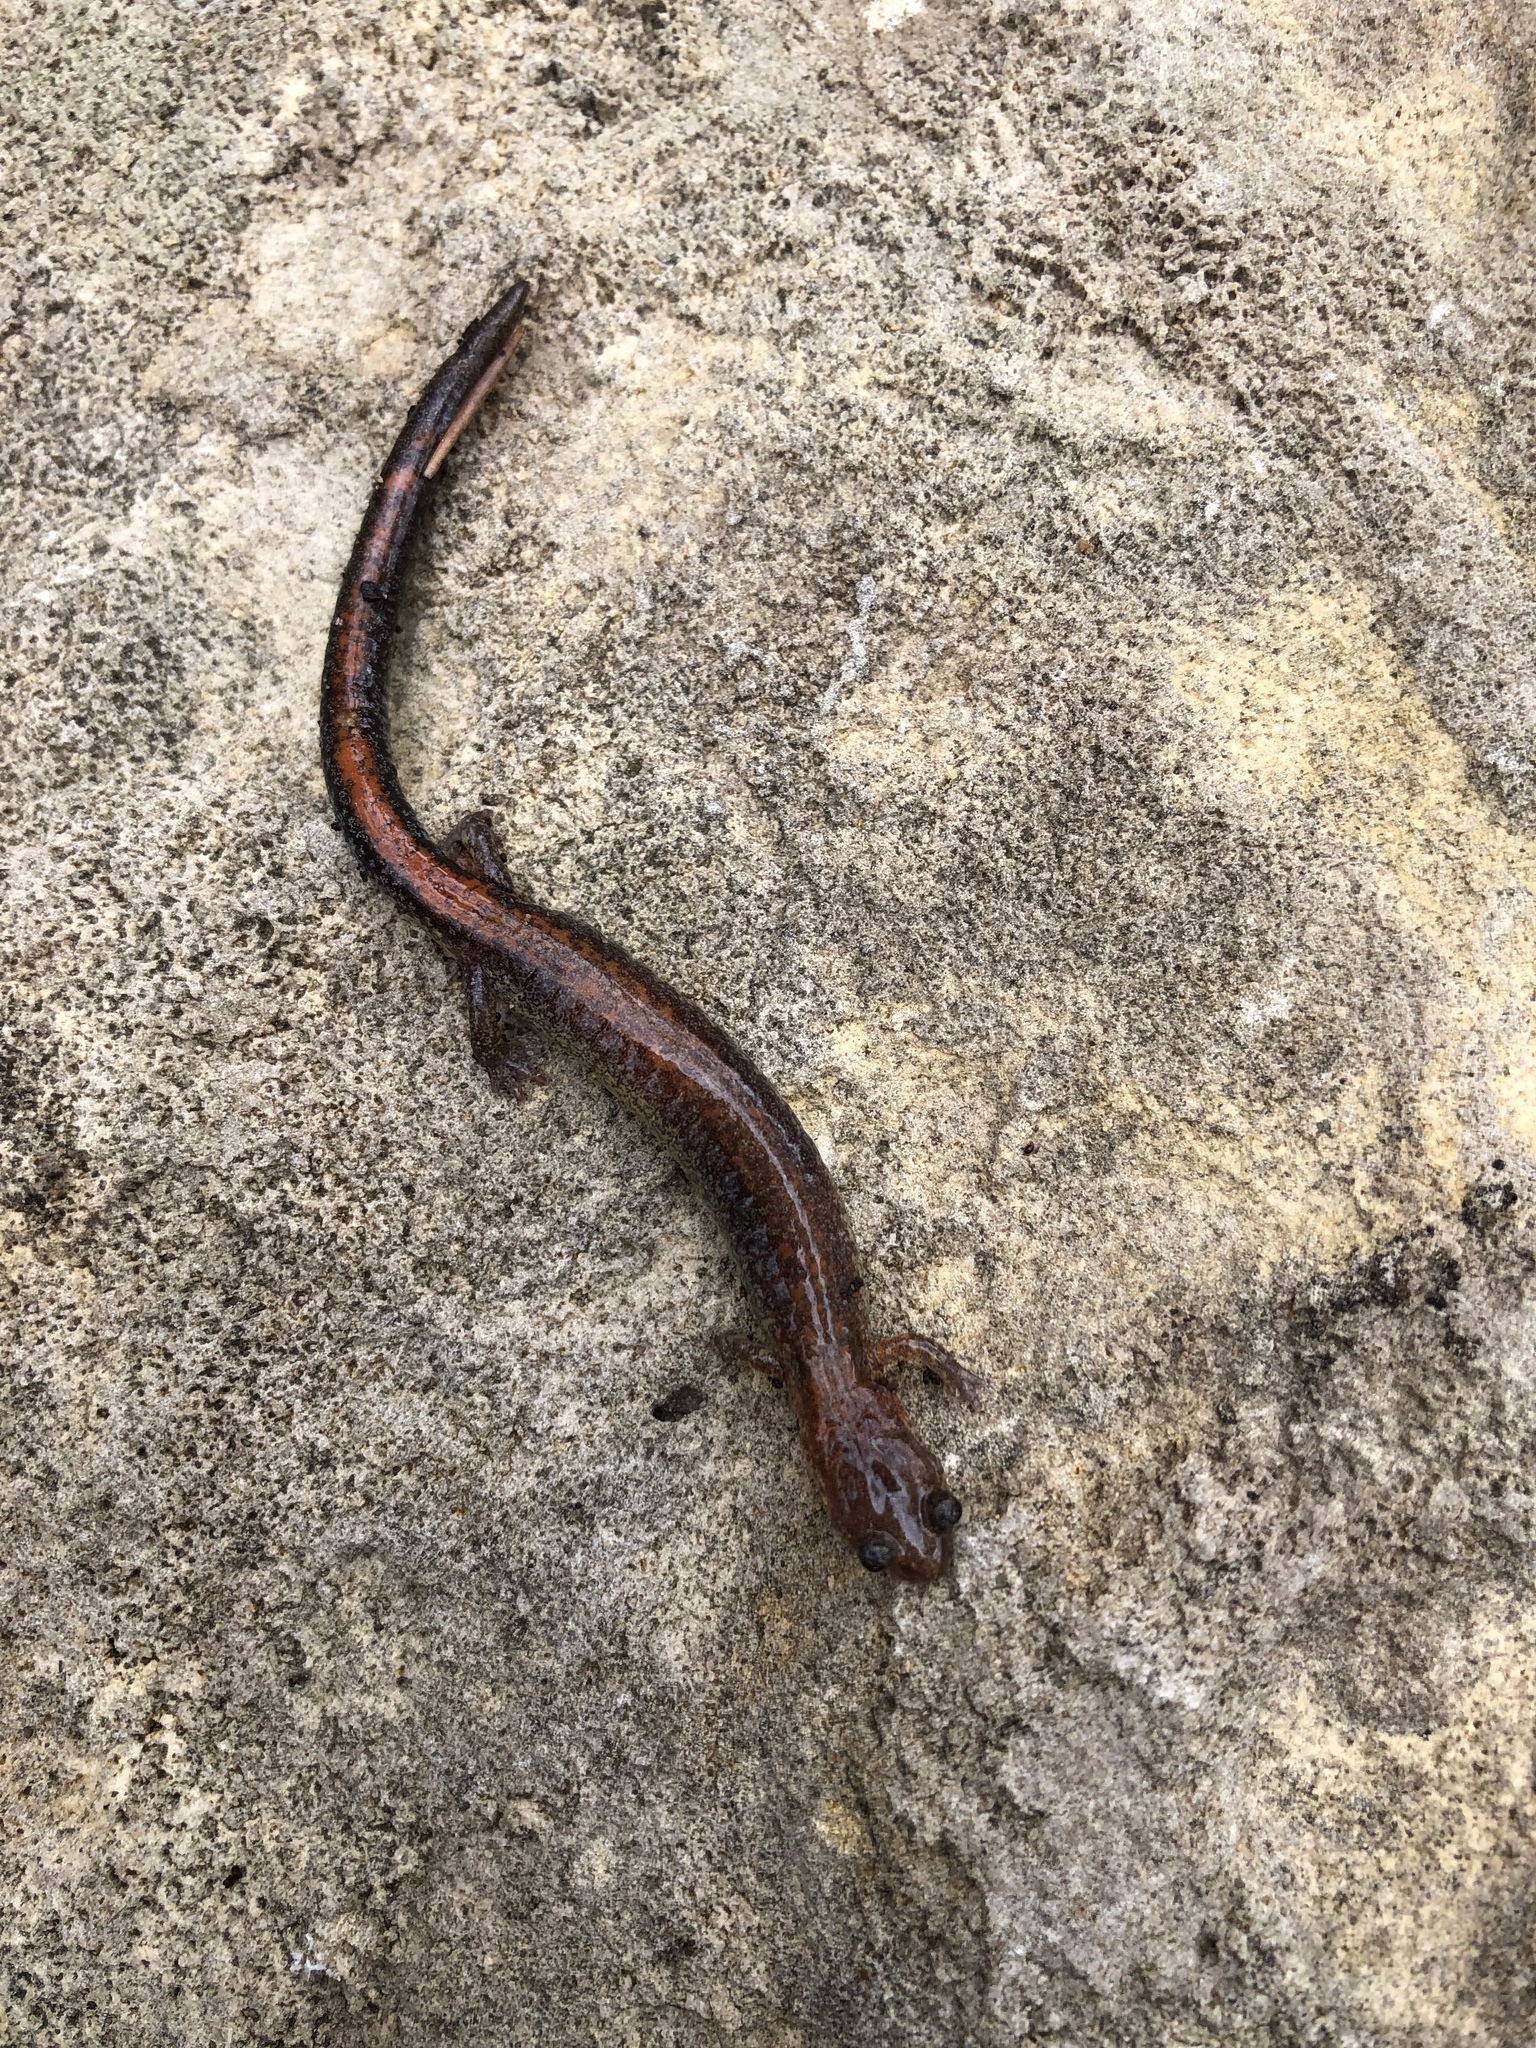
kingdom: Animalia
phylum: Chordata
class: Amphibia
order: Caudata
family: Plethodontidae
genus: Plethodon
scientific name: Plethodon cinereus
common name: Redback salamander
